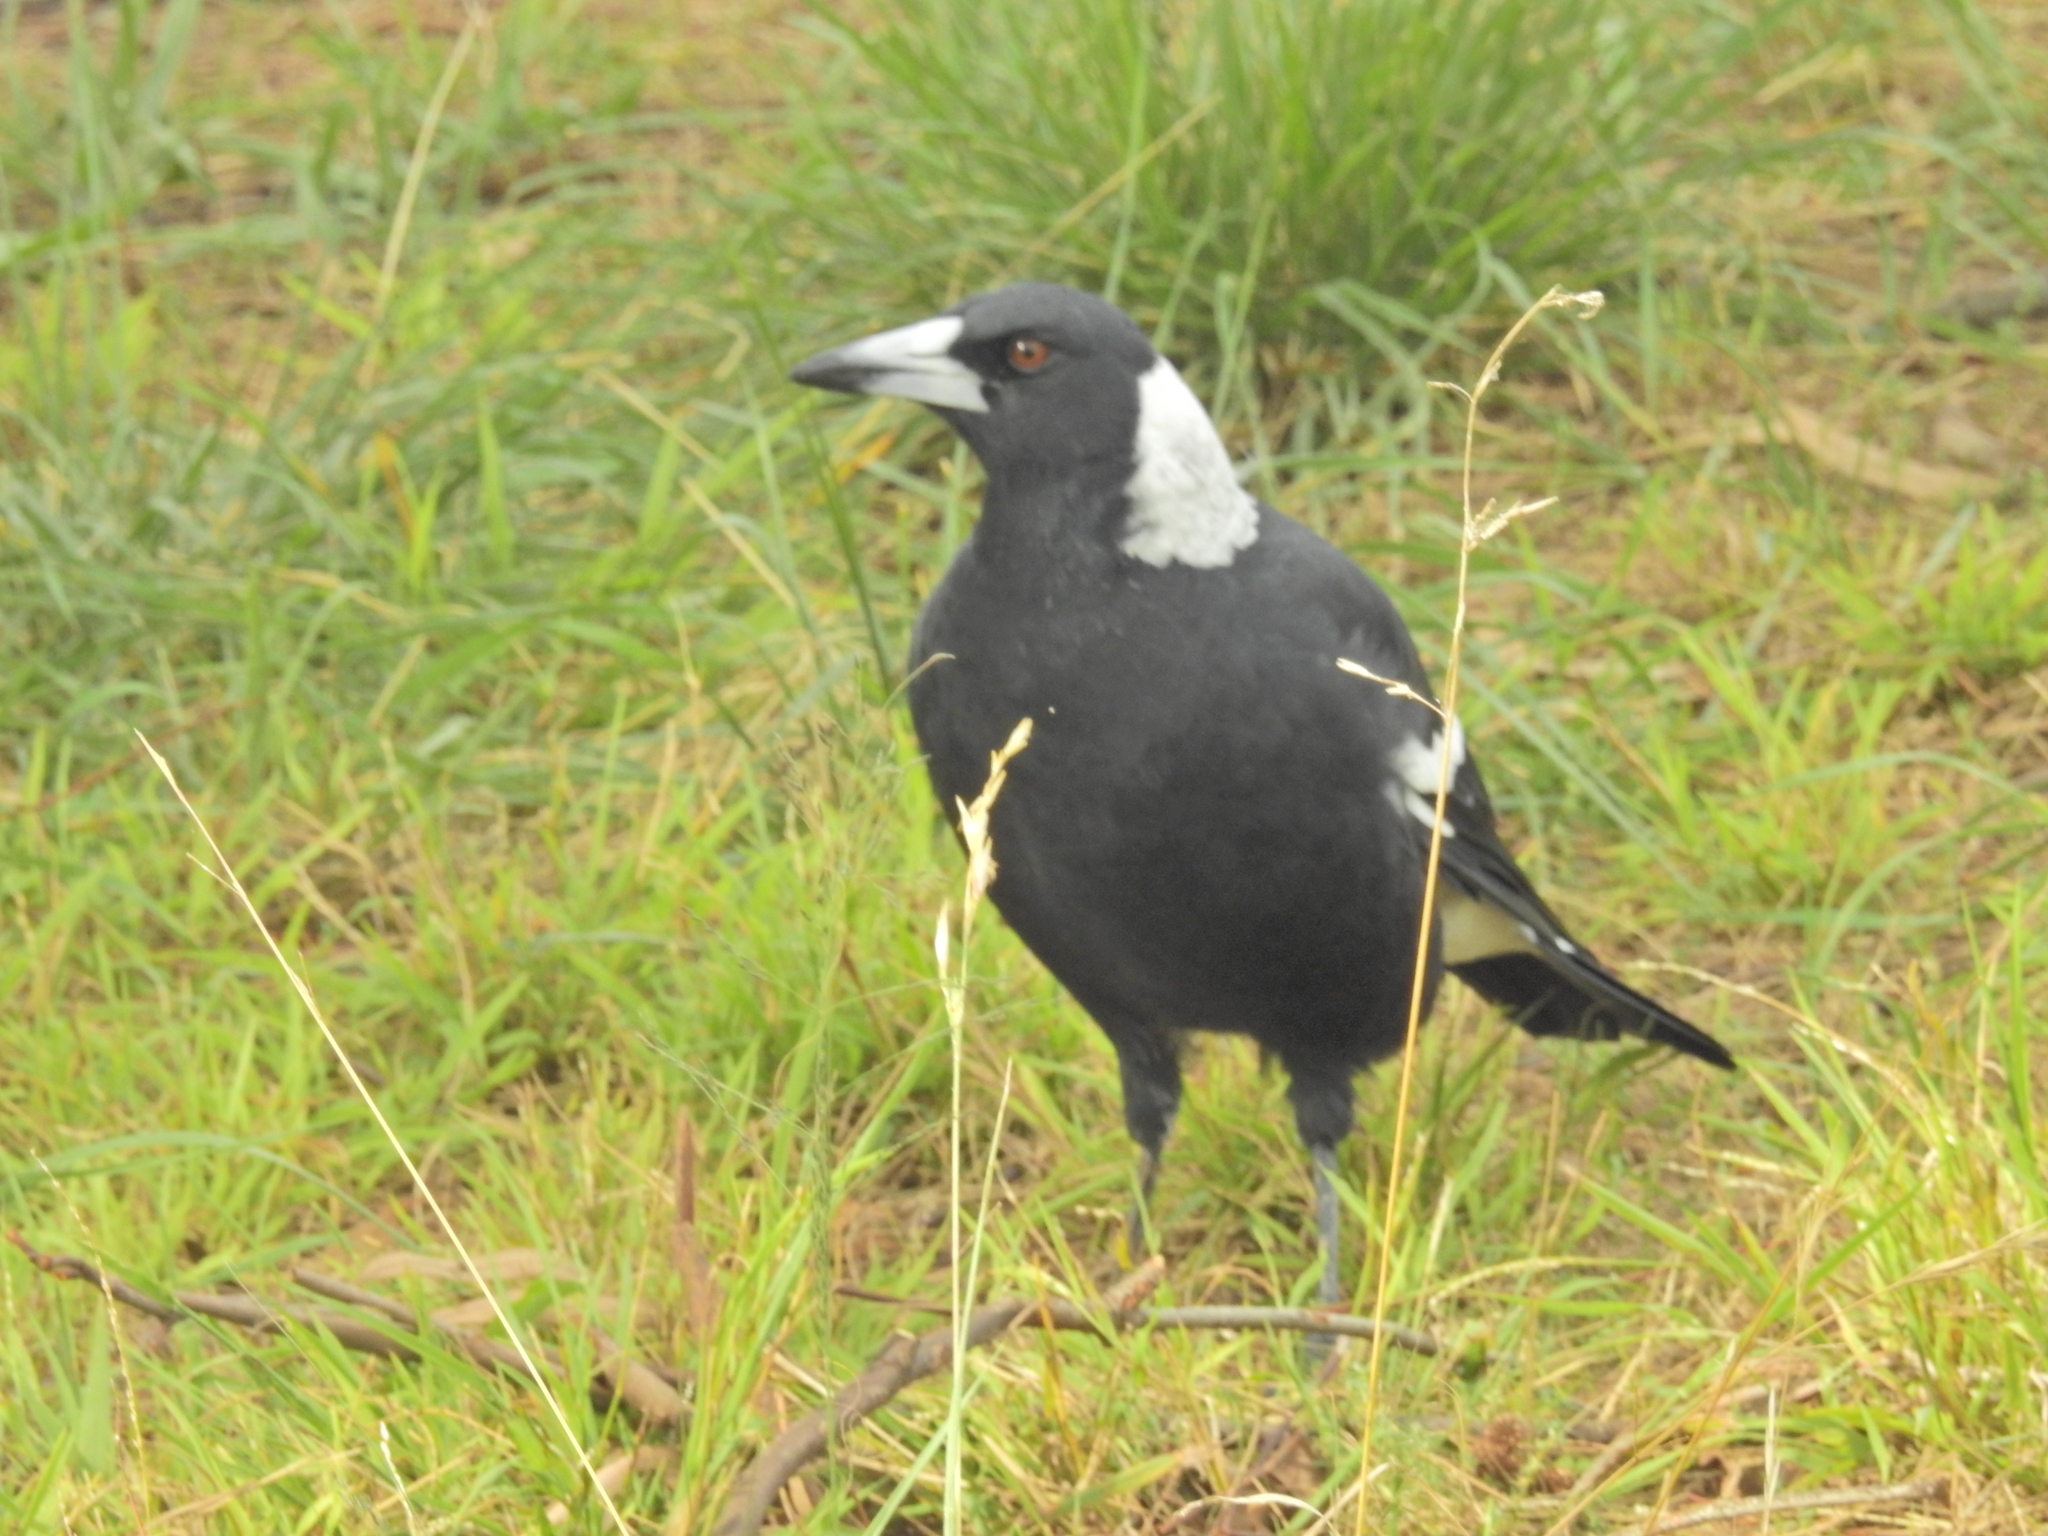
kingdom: Animalia
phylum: Chordata
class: Aves
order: Passeriformes
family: Cracticidae
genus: Gymnorhina
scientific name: Gymnorhina tibicen
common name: Australian magpie
